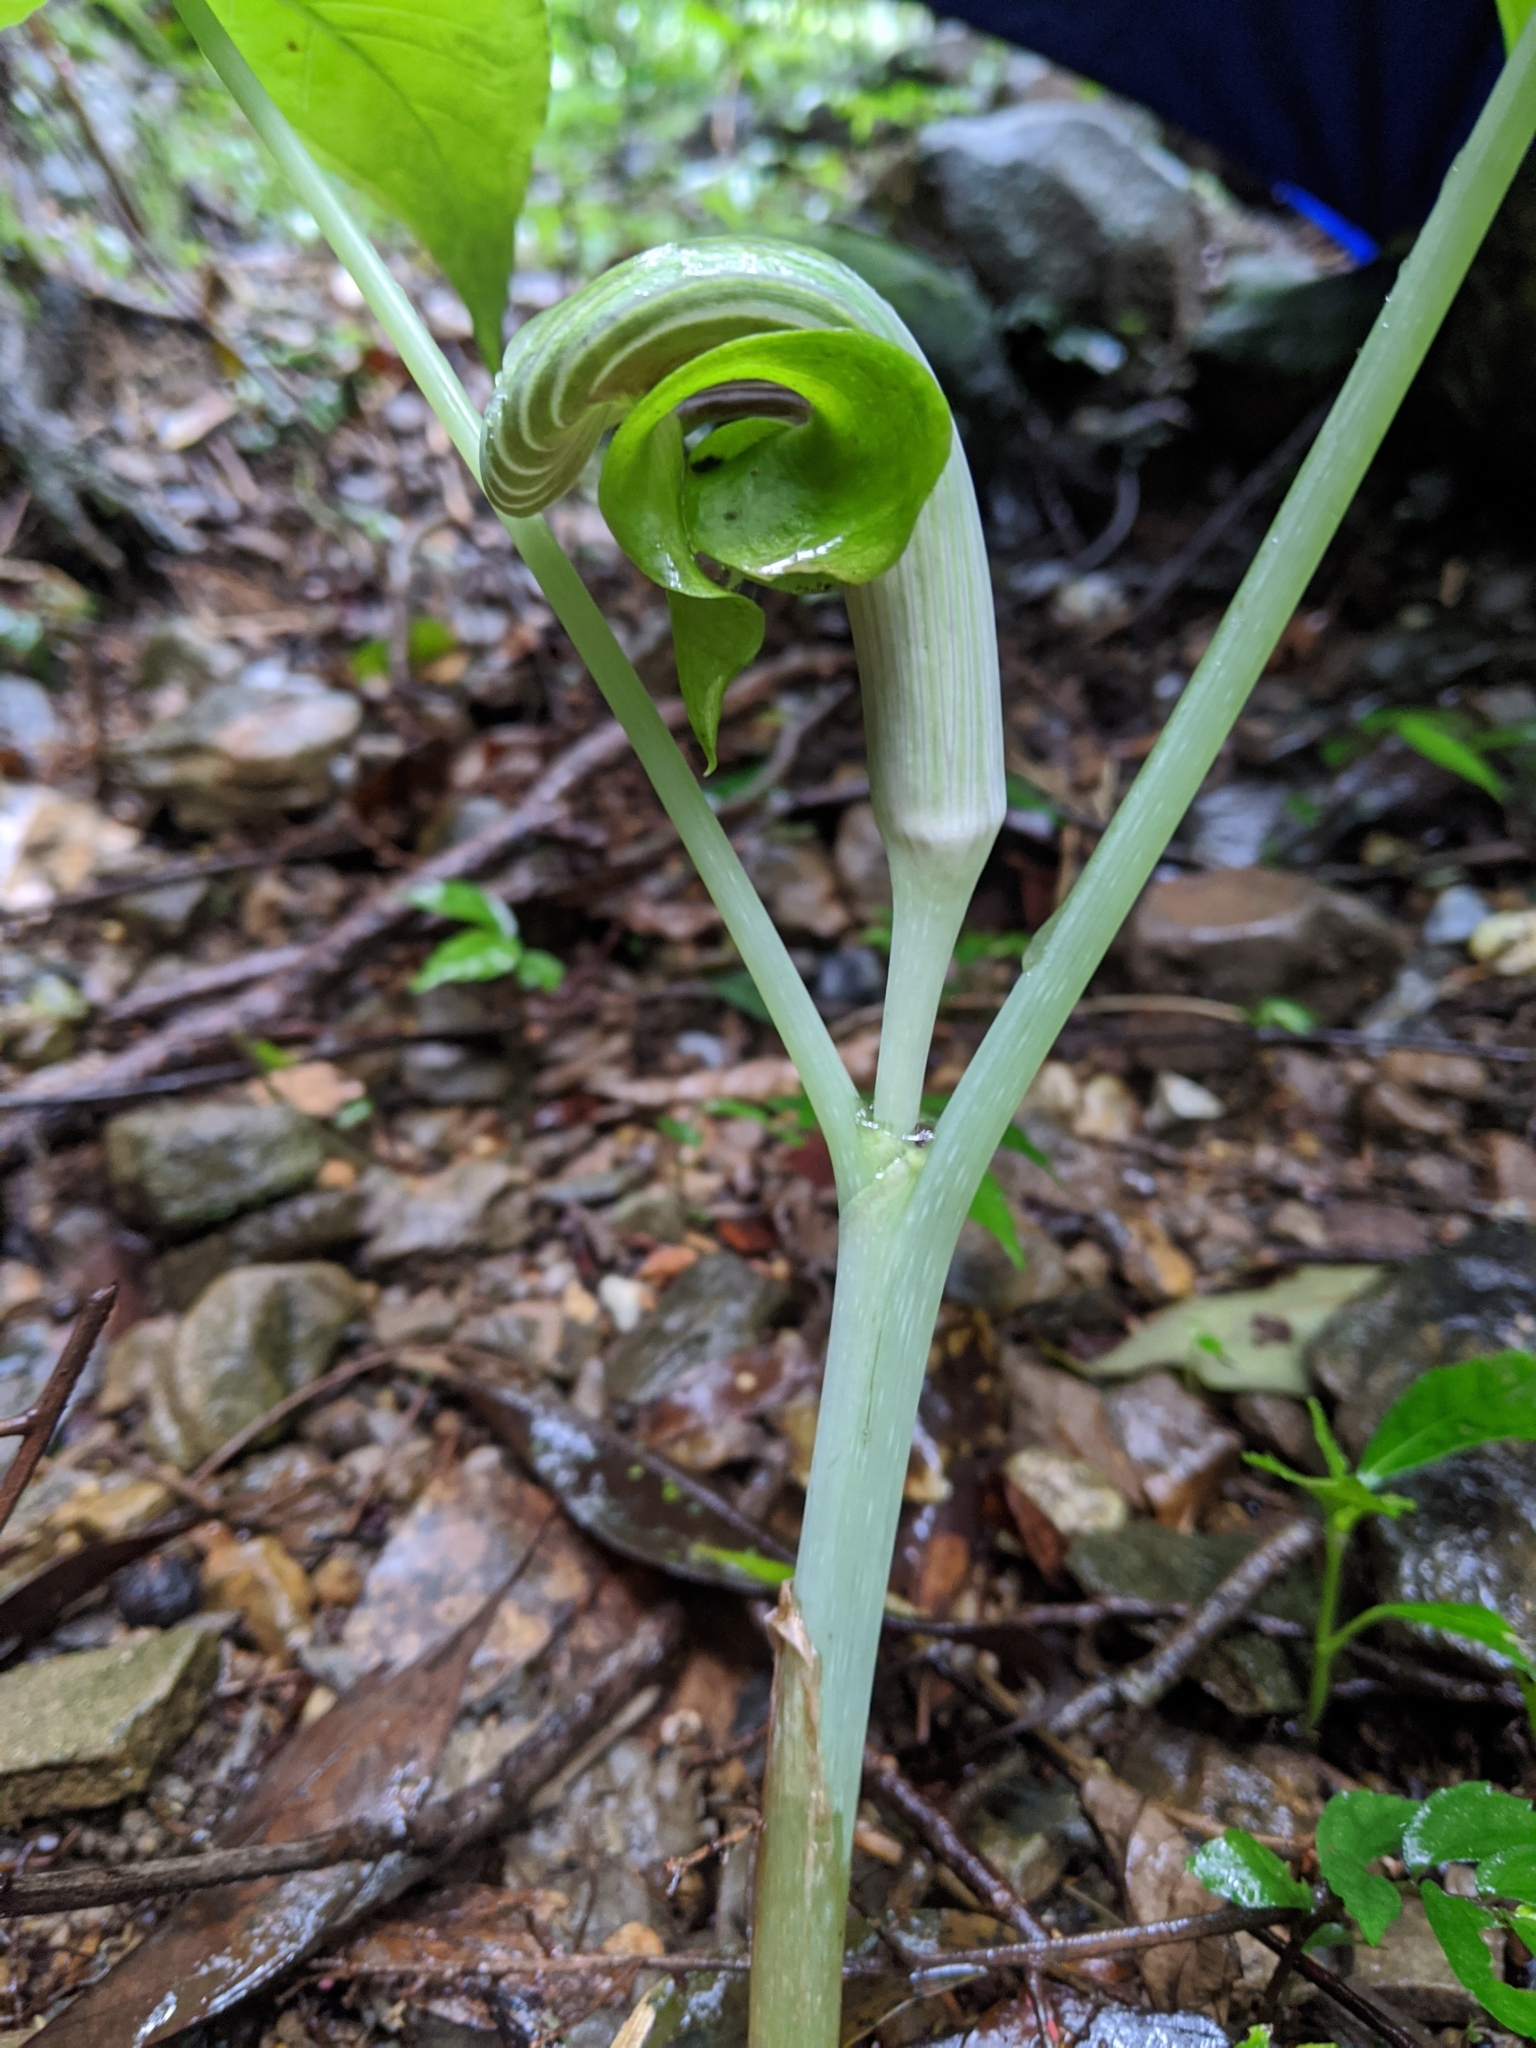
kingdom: Plantae
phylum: Tracheophyta
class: Liliopsida
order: Alismatales
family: Araceae
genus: Arisaema
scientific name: Arisaema ringens
